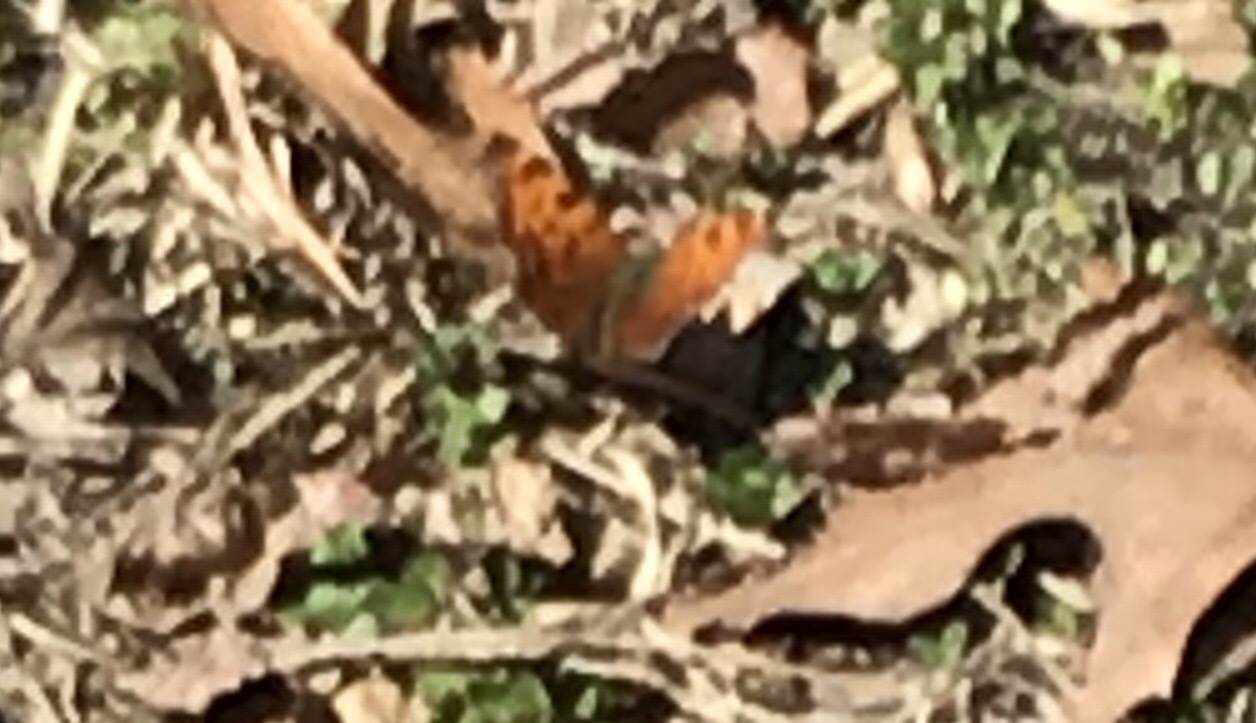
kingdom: Animalia
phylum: Arthropoda
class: Insecta
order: Lepidoptera
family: Nymphalidae
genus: Polygonia
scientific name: Polygonia comma
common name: Eastern comma
